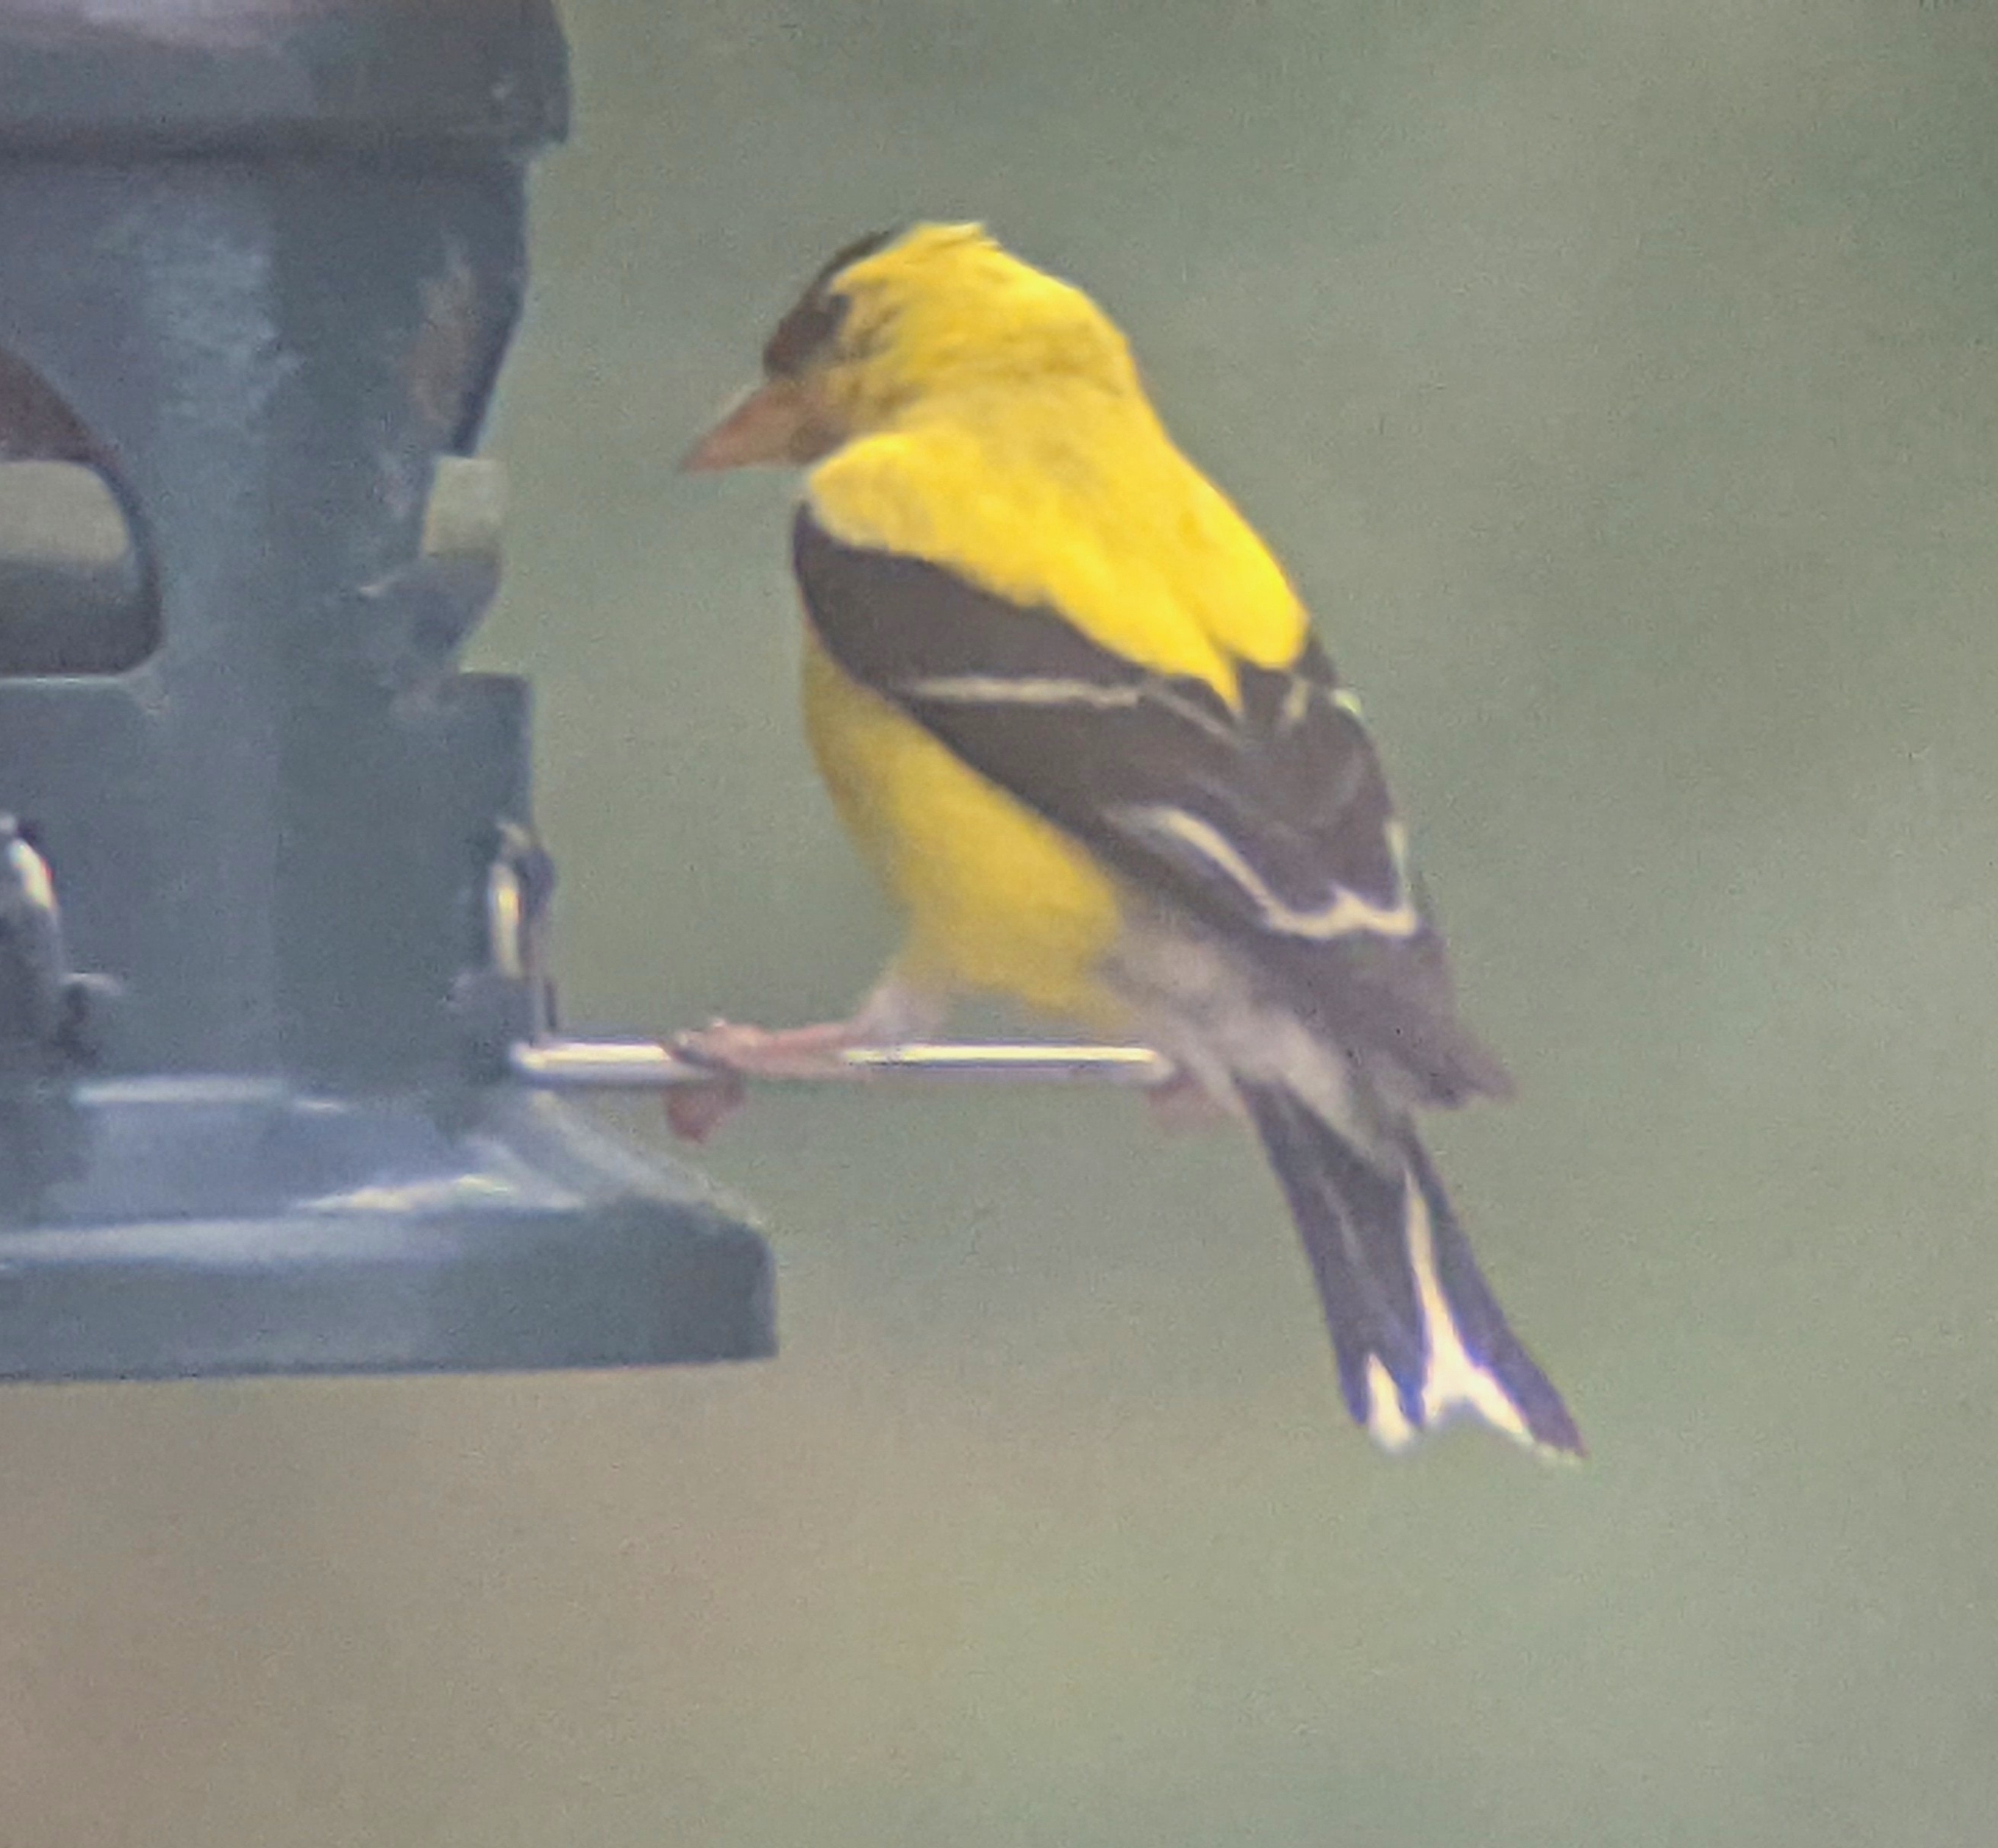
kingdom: Animalia
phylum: Chordata
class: Aves
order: Passeriformes
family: Fringillidae
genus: Spinus
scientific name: Spinus tristis
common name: American goldfinch
